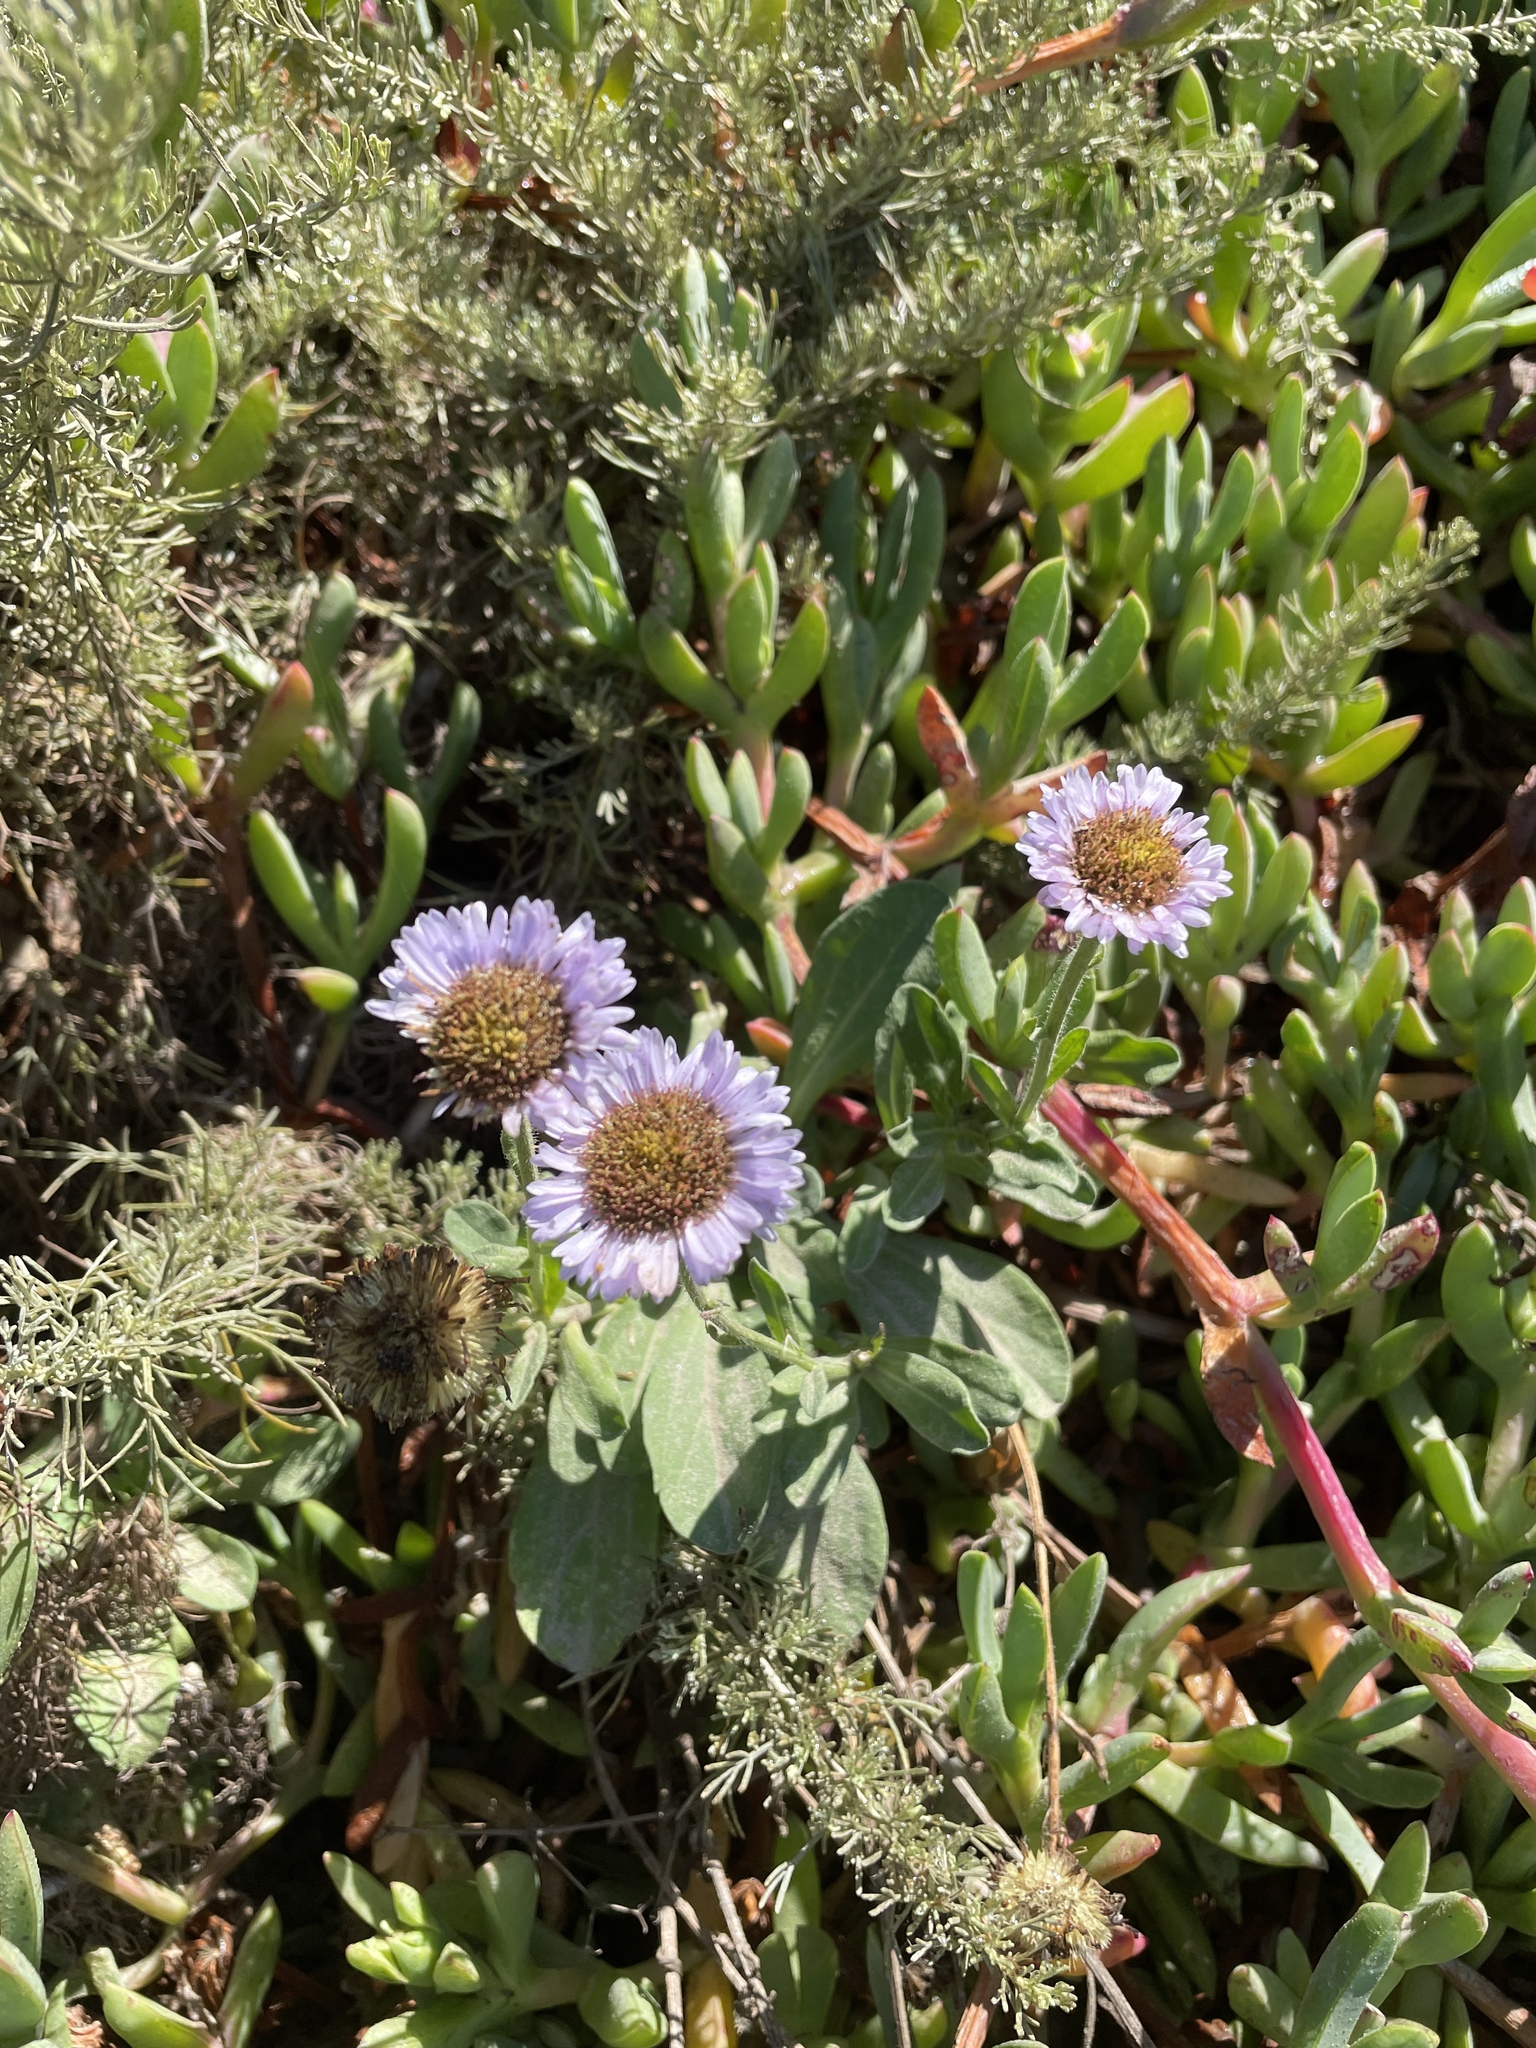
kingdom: Plantae
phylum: Tracheophyta
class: Magnoliopsida
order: Asterales
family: Asteraceae
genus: Erigeron
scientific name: Erigeron glaucus
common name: Seaside daisy
